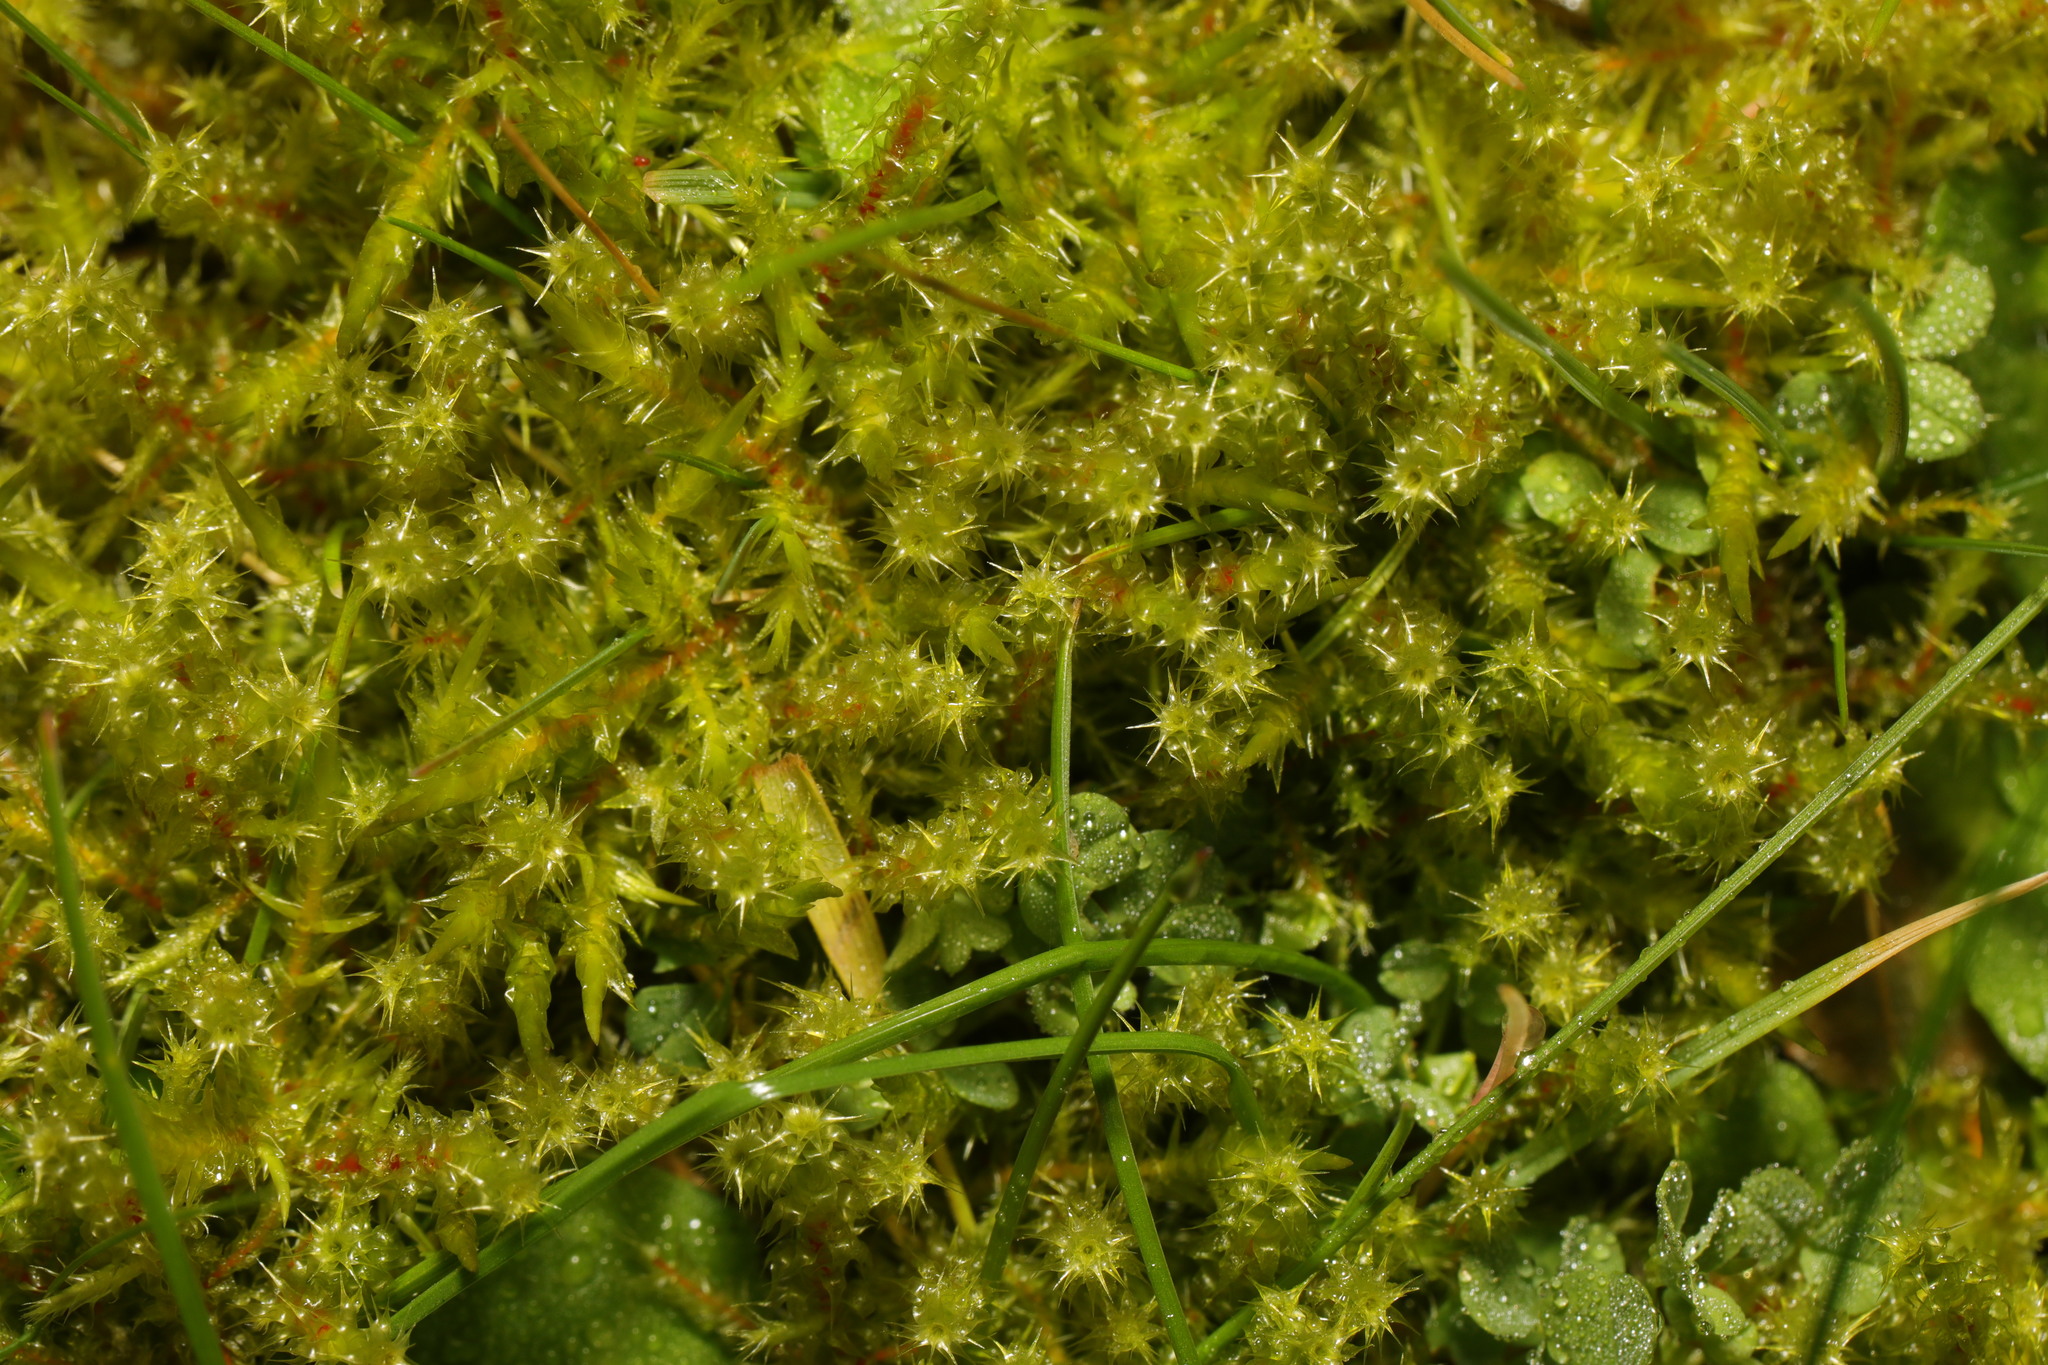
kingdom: Plantae
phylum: Bryophyta
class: Bryopsida
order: Hypnales
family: Hylocomiaceae
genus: Rhytidiadelphus
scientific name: Rhytidiadelphus squarrosus
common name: Springy turf-moss
